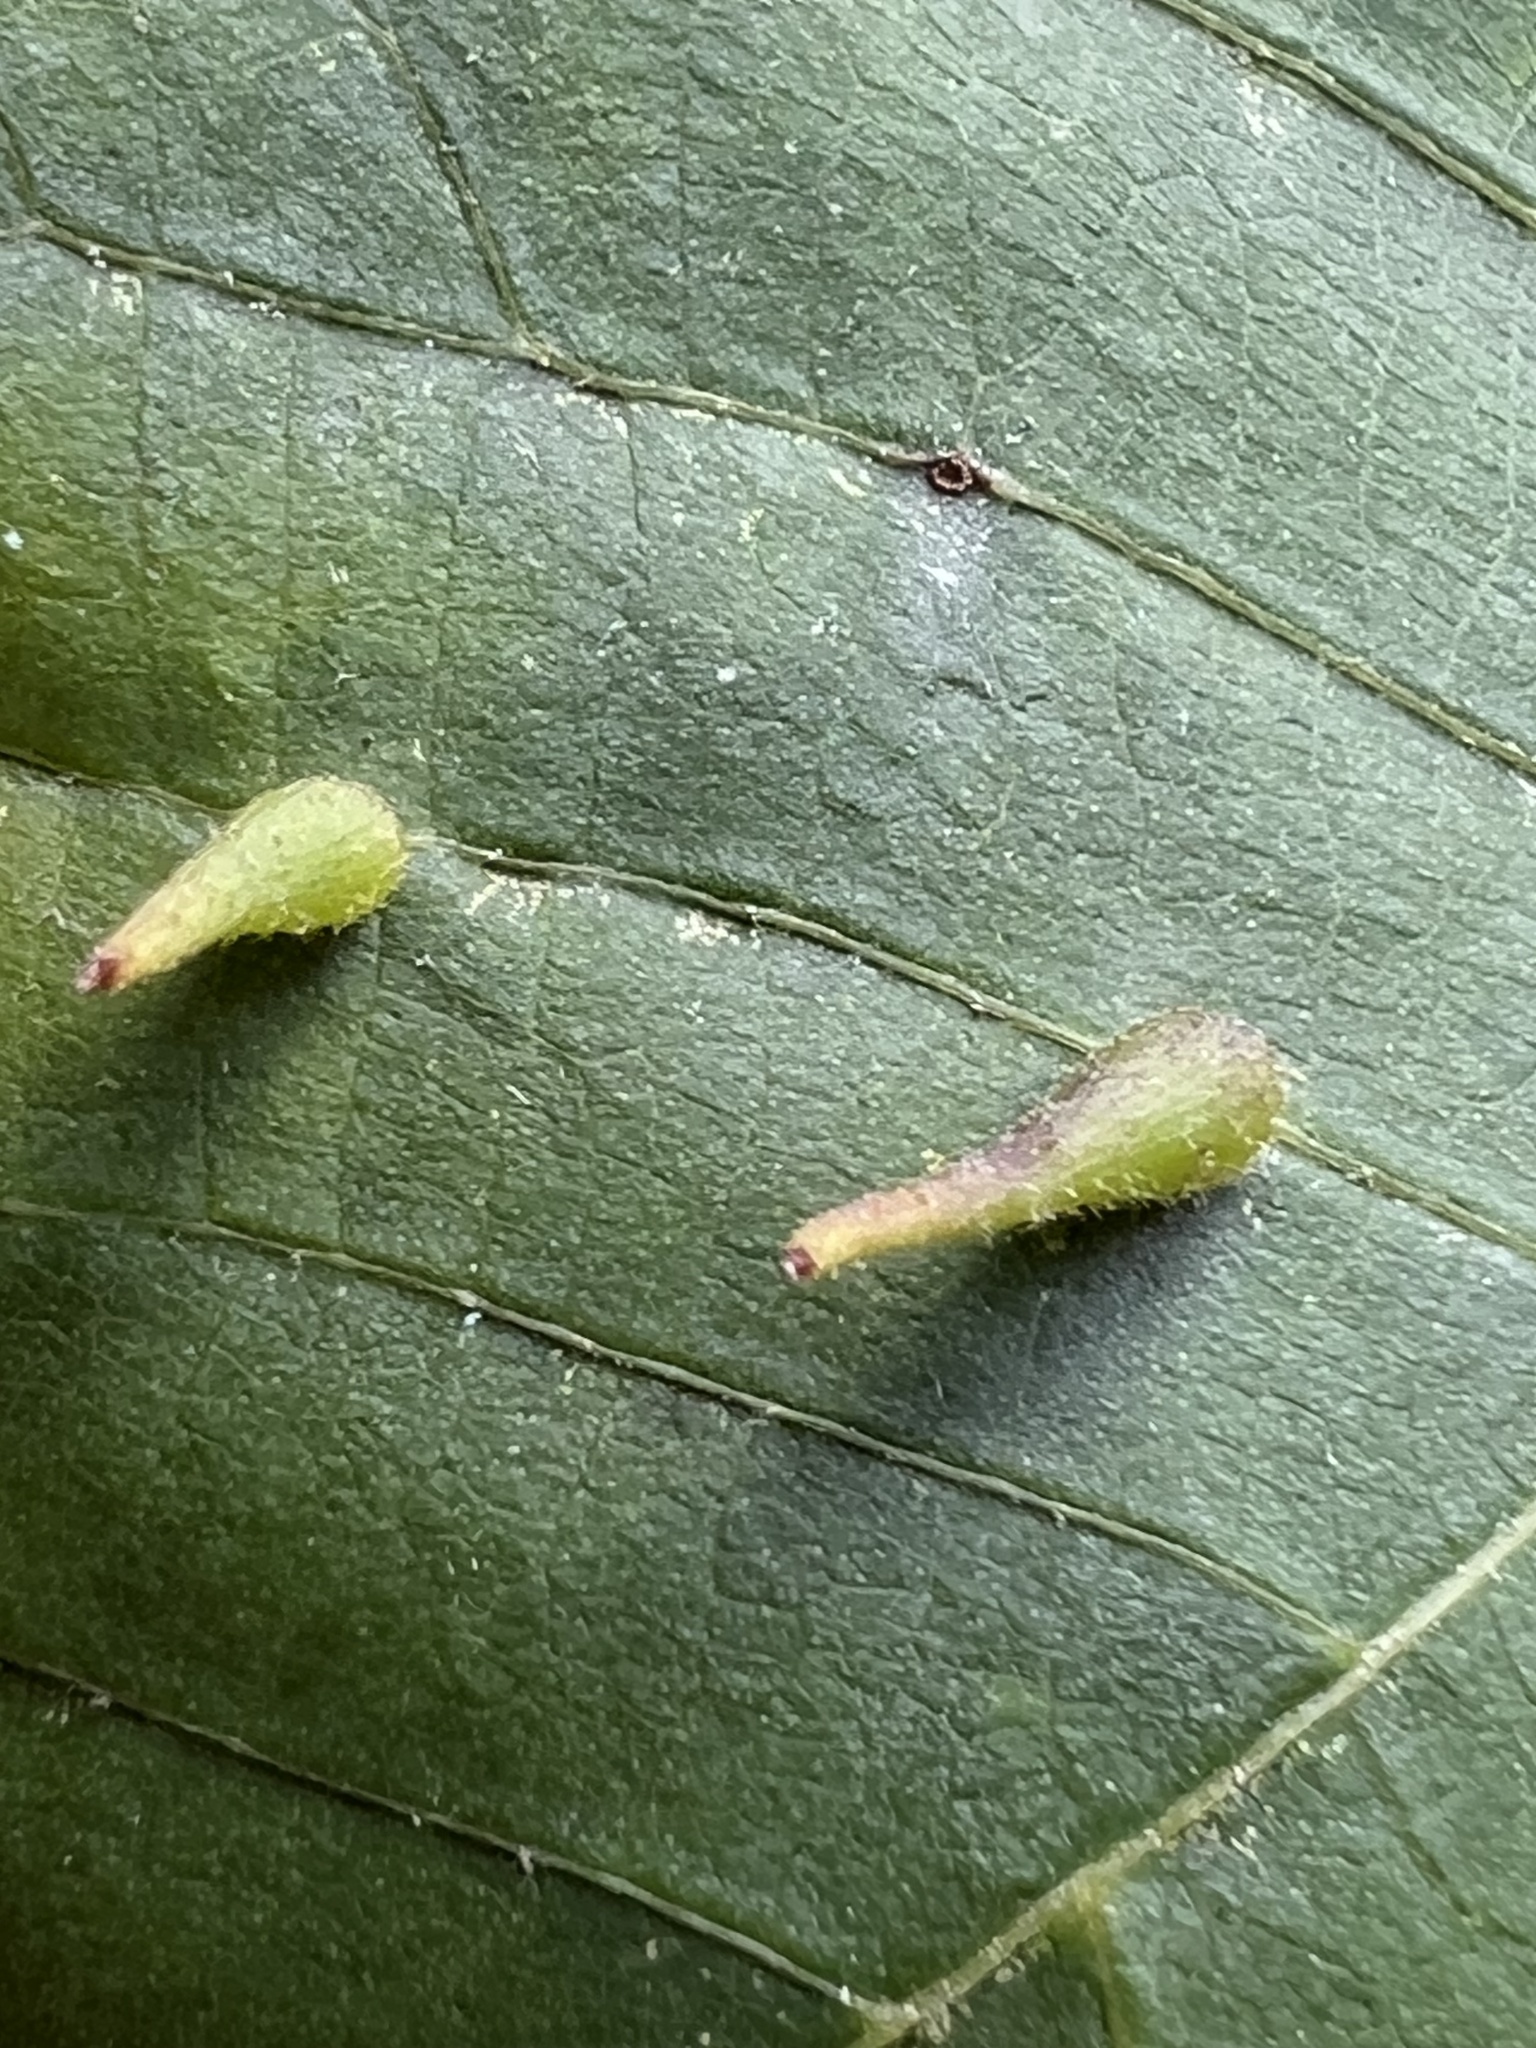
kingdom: Animalia
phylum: Arthropoda
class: Insecta
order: Diptera
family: Cecidomyiidae
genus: Caryomyia
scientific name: Caryomyia spinulosa
